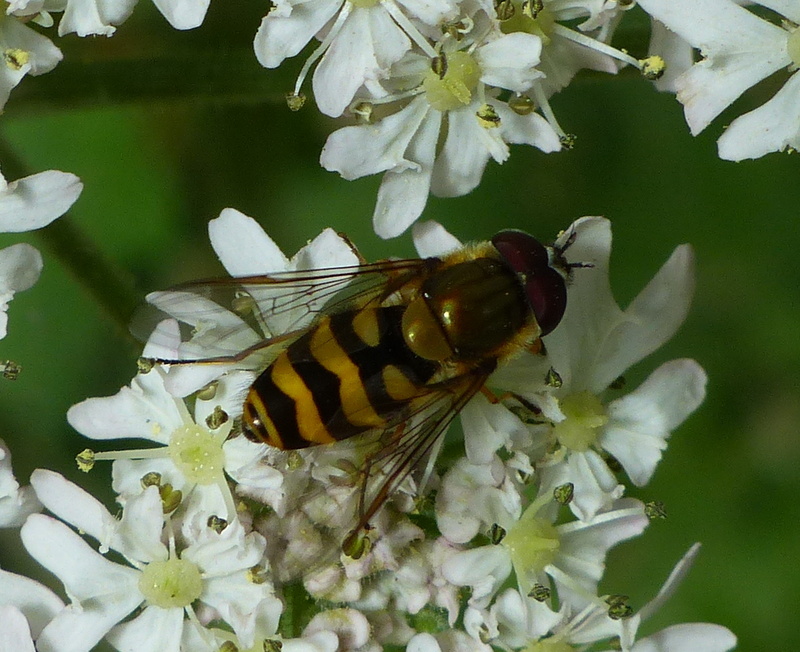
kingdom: Animalia
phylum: Arthropoda
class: Insecta
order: Diptera
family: Syrphidae
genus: Syrphus
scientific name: Syrphus torvus
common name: Hairy-eyed flower fly
